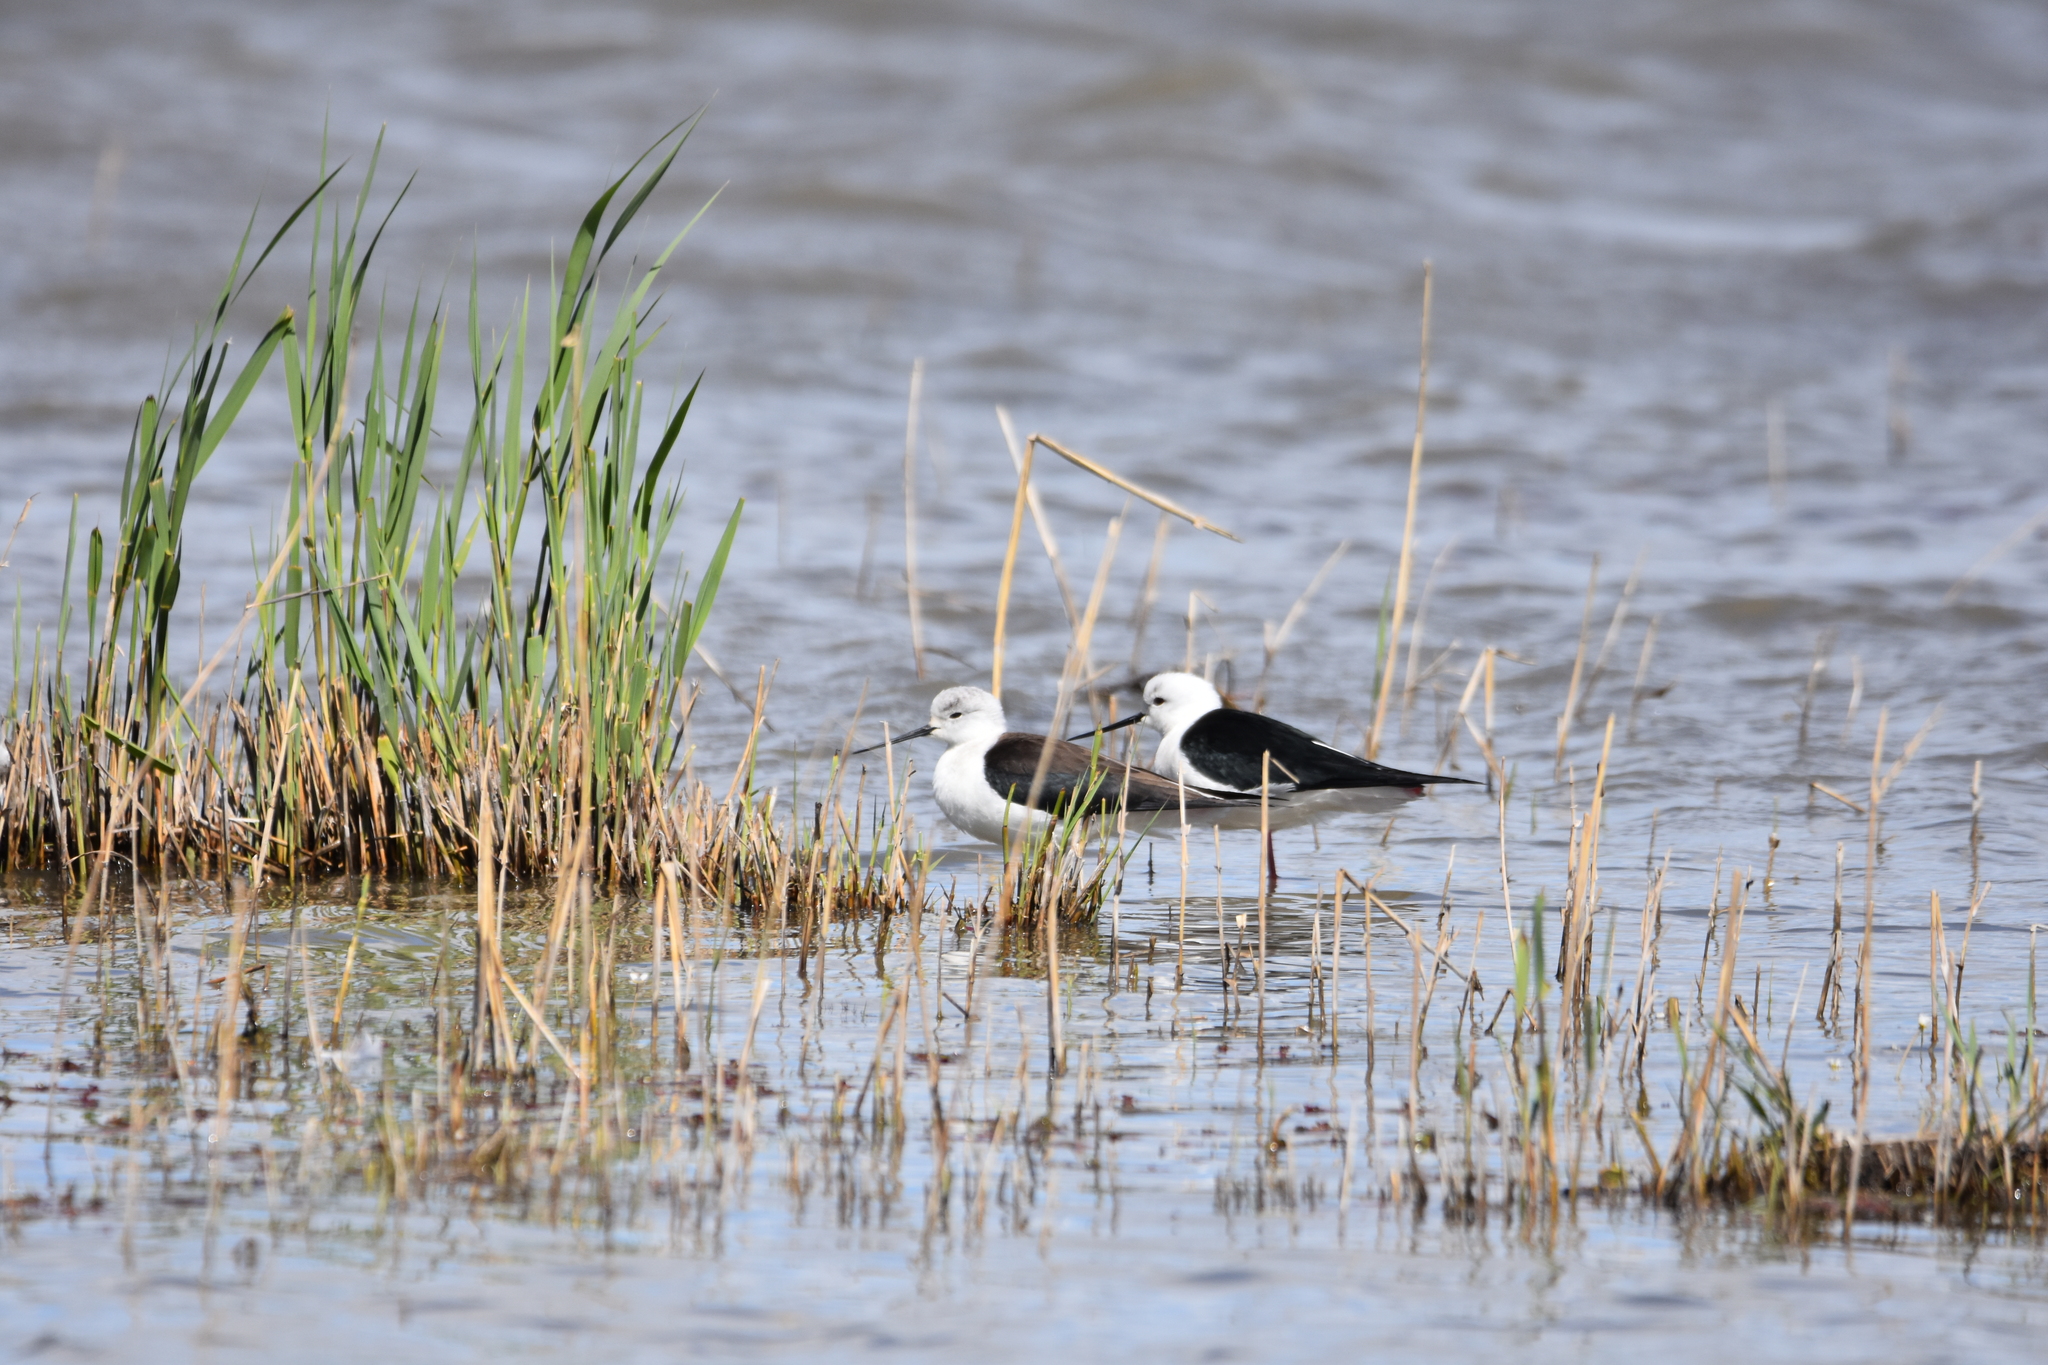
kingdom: Animalia
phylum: Chordata
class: Aves
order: Charadriiformes
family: Recurvirostridae
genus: Himantopus
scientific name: Himantopus himantopus
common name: Black-winged stilt
